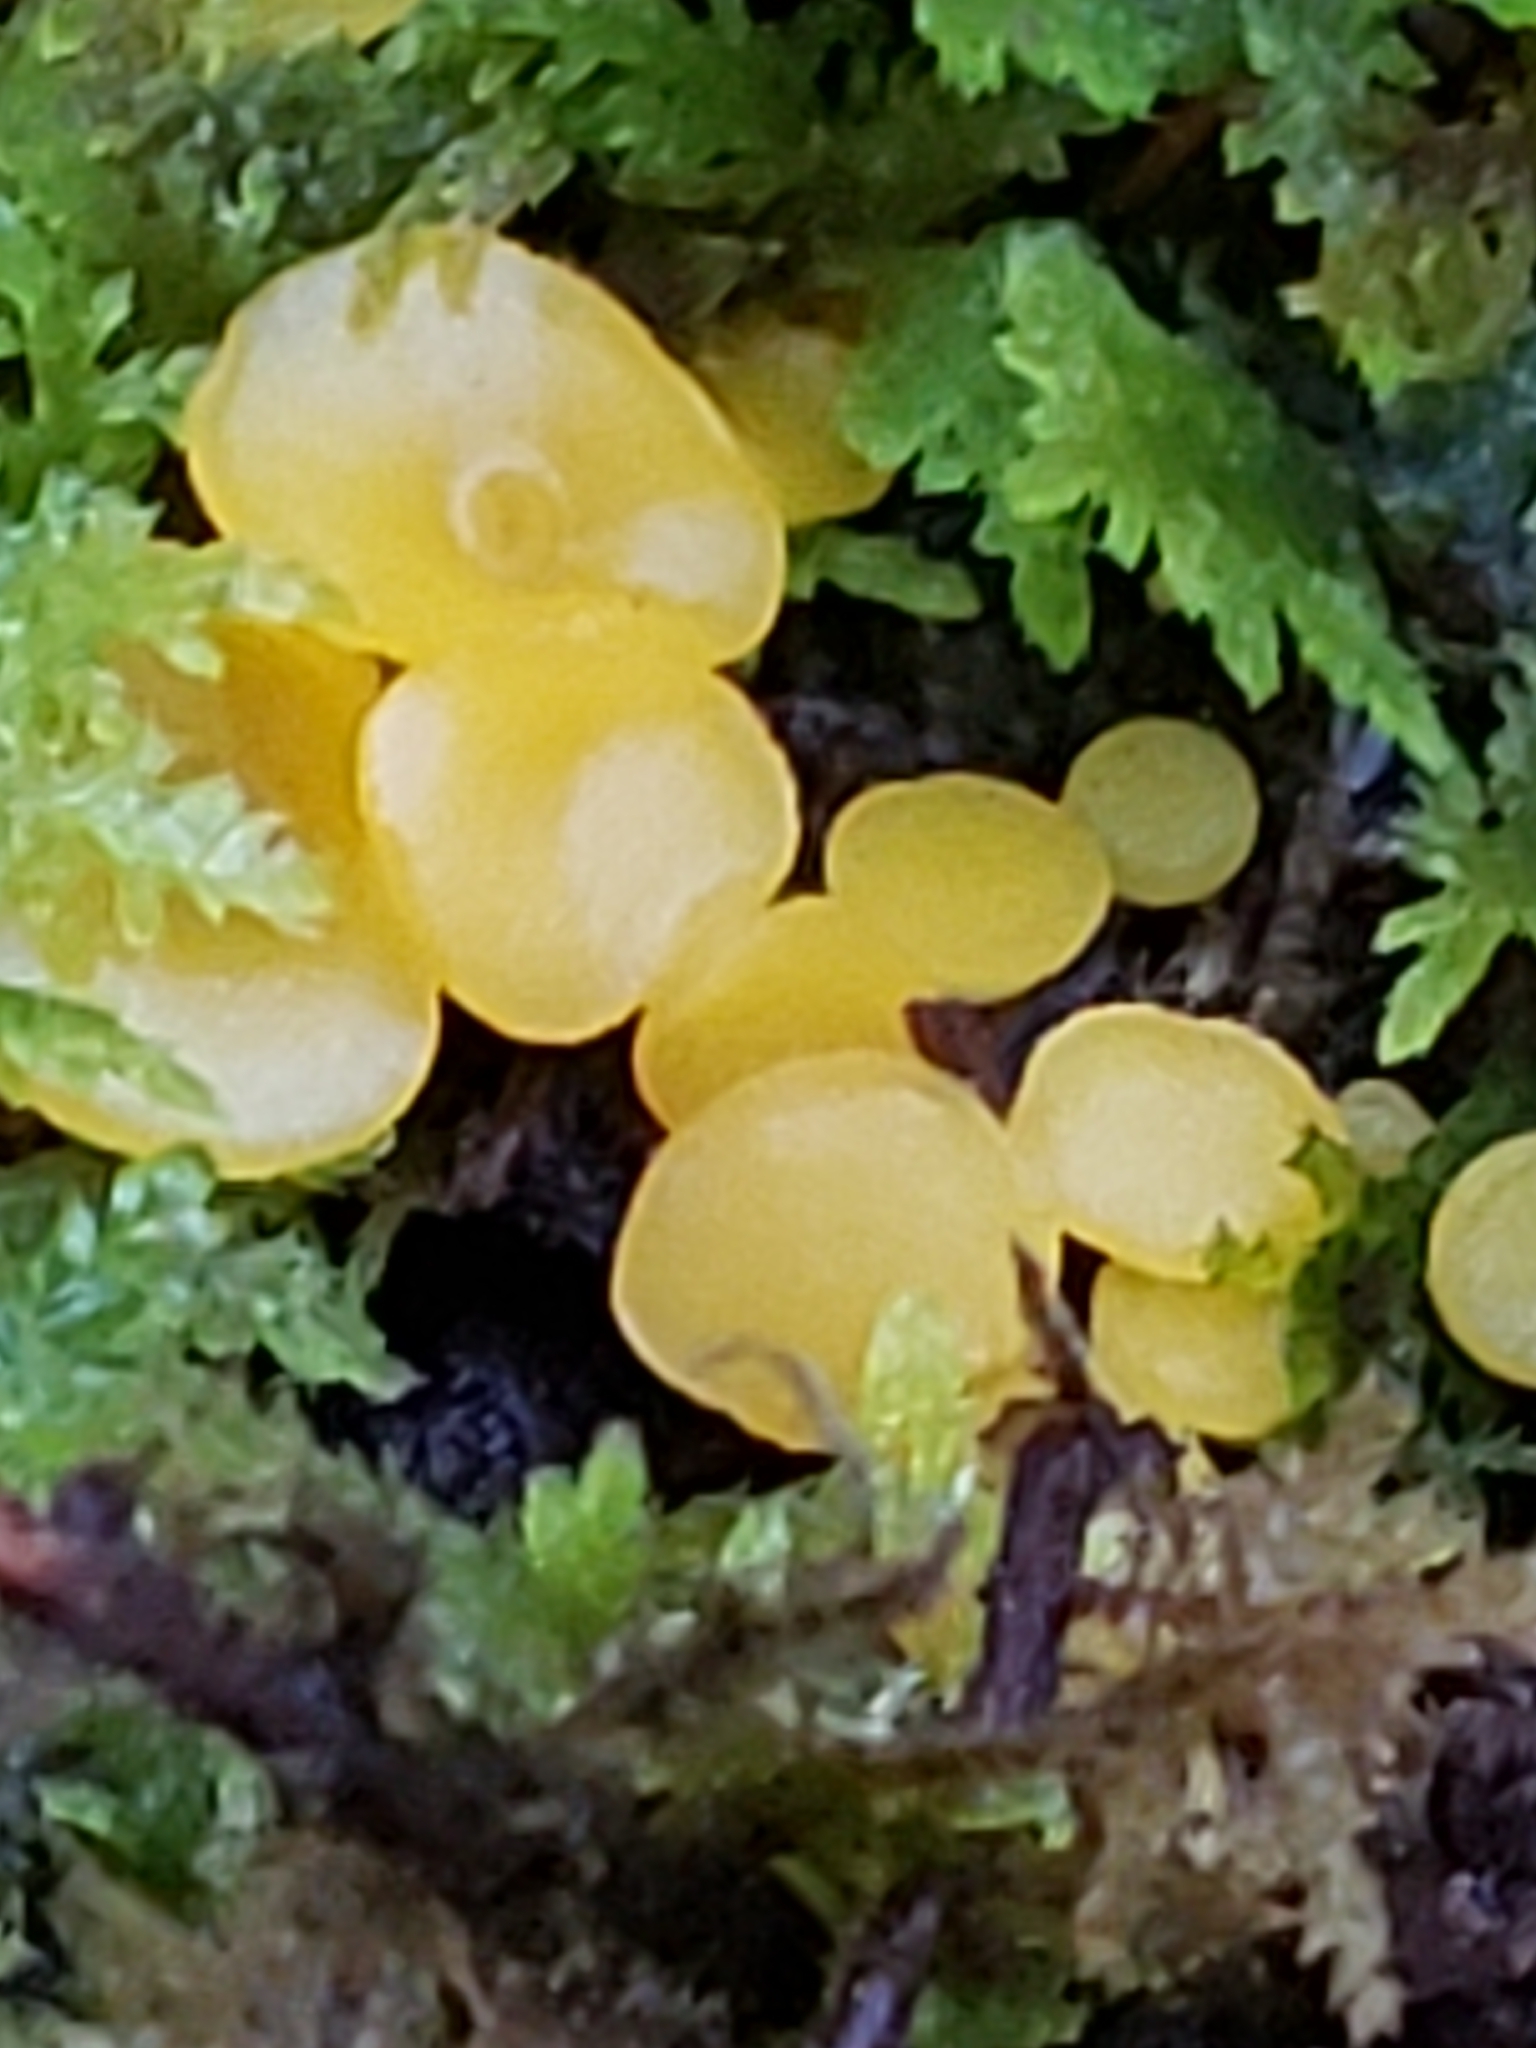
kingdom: Fungi
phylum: Ascomycota
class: Leotiomycetes
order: Helotiales
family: Pezizellaceae
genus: Calycina
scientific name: Calycina citrina
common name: Yellow fairy cups
